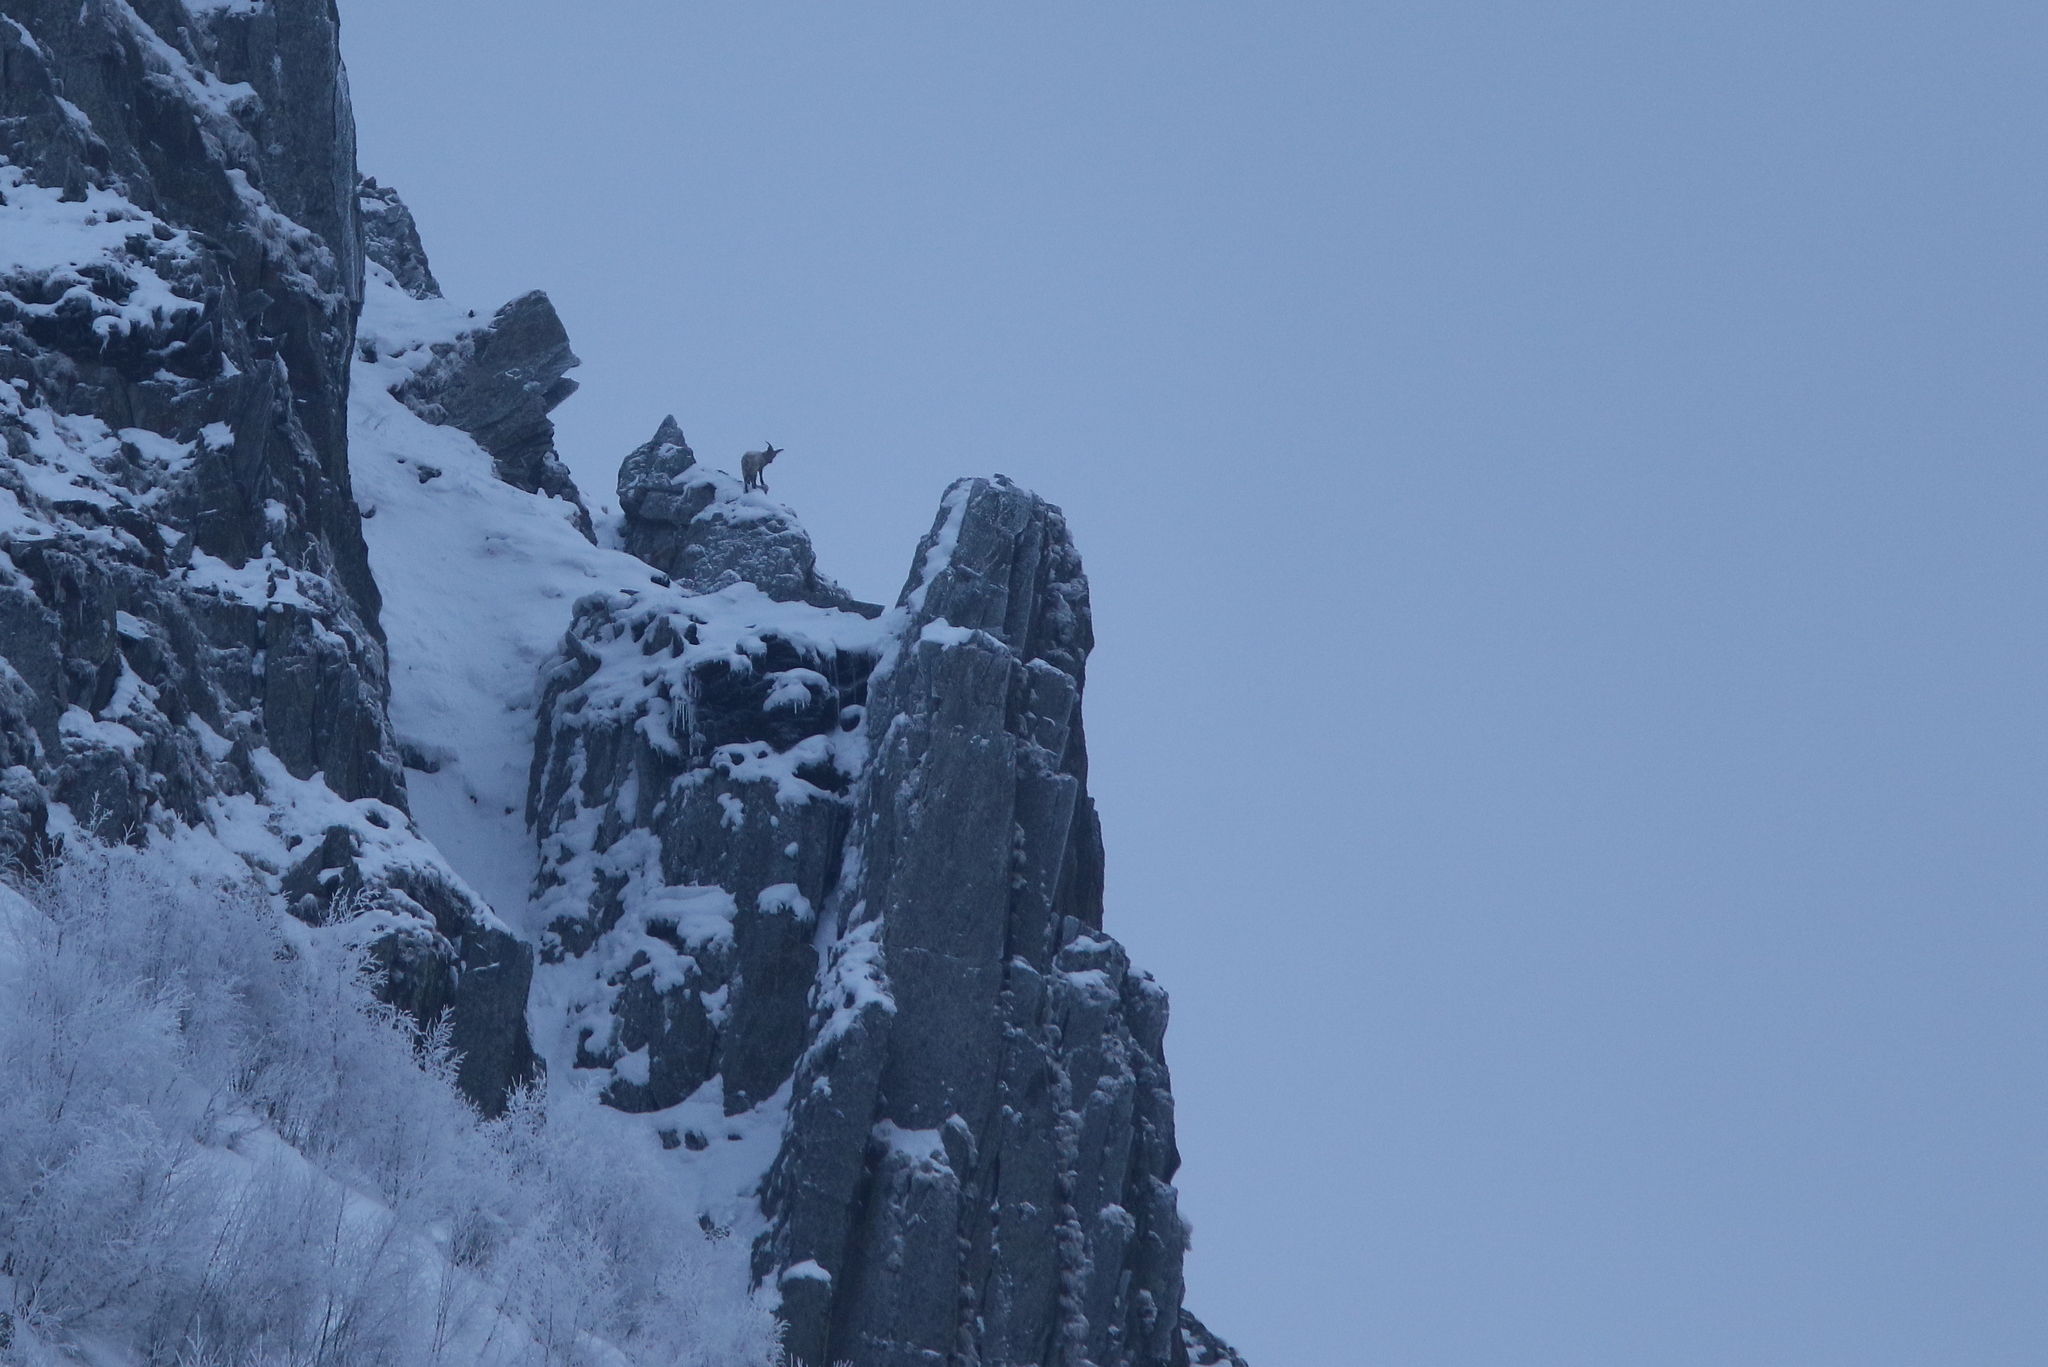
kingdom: Animalia
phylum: Chordata
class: Mammalia
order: Artiodactyla
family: Bovidae
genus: Capra
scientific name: Capra caucasica
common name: Tur
